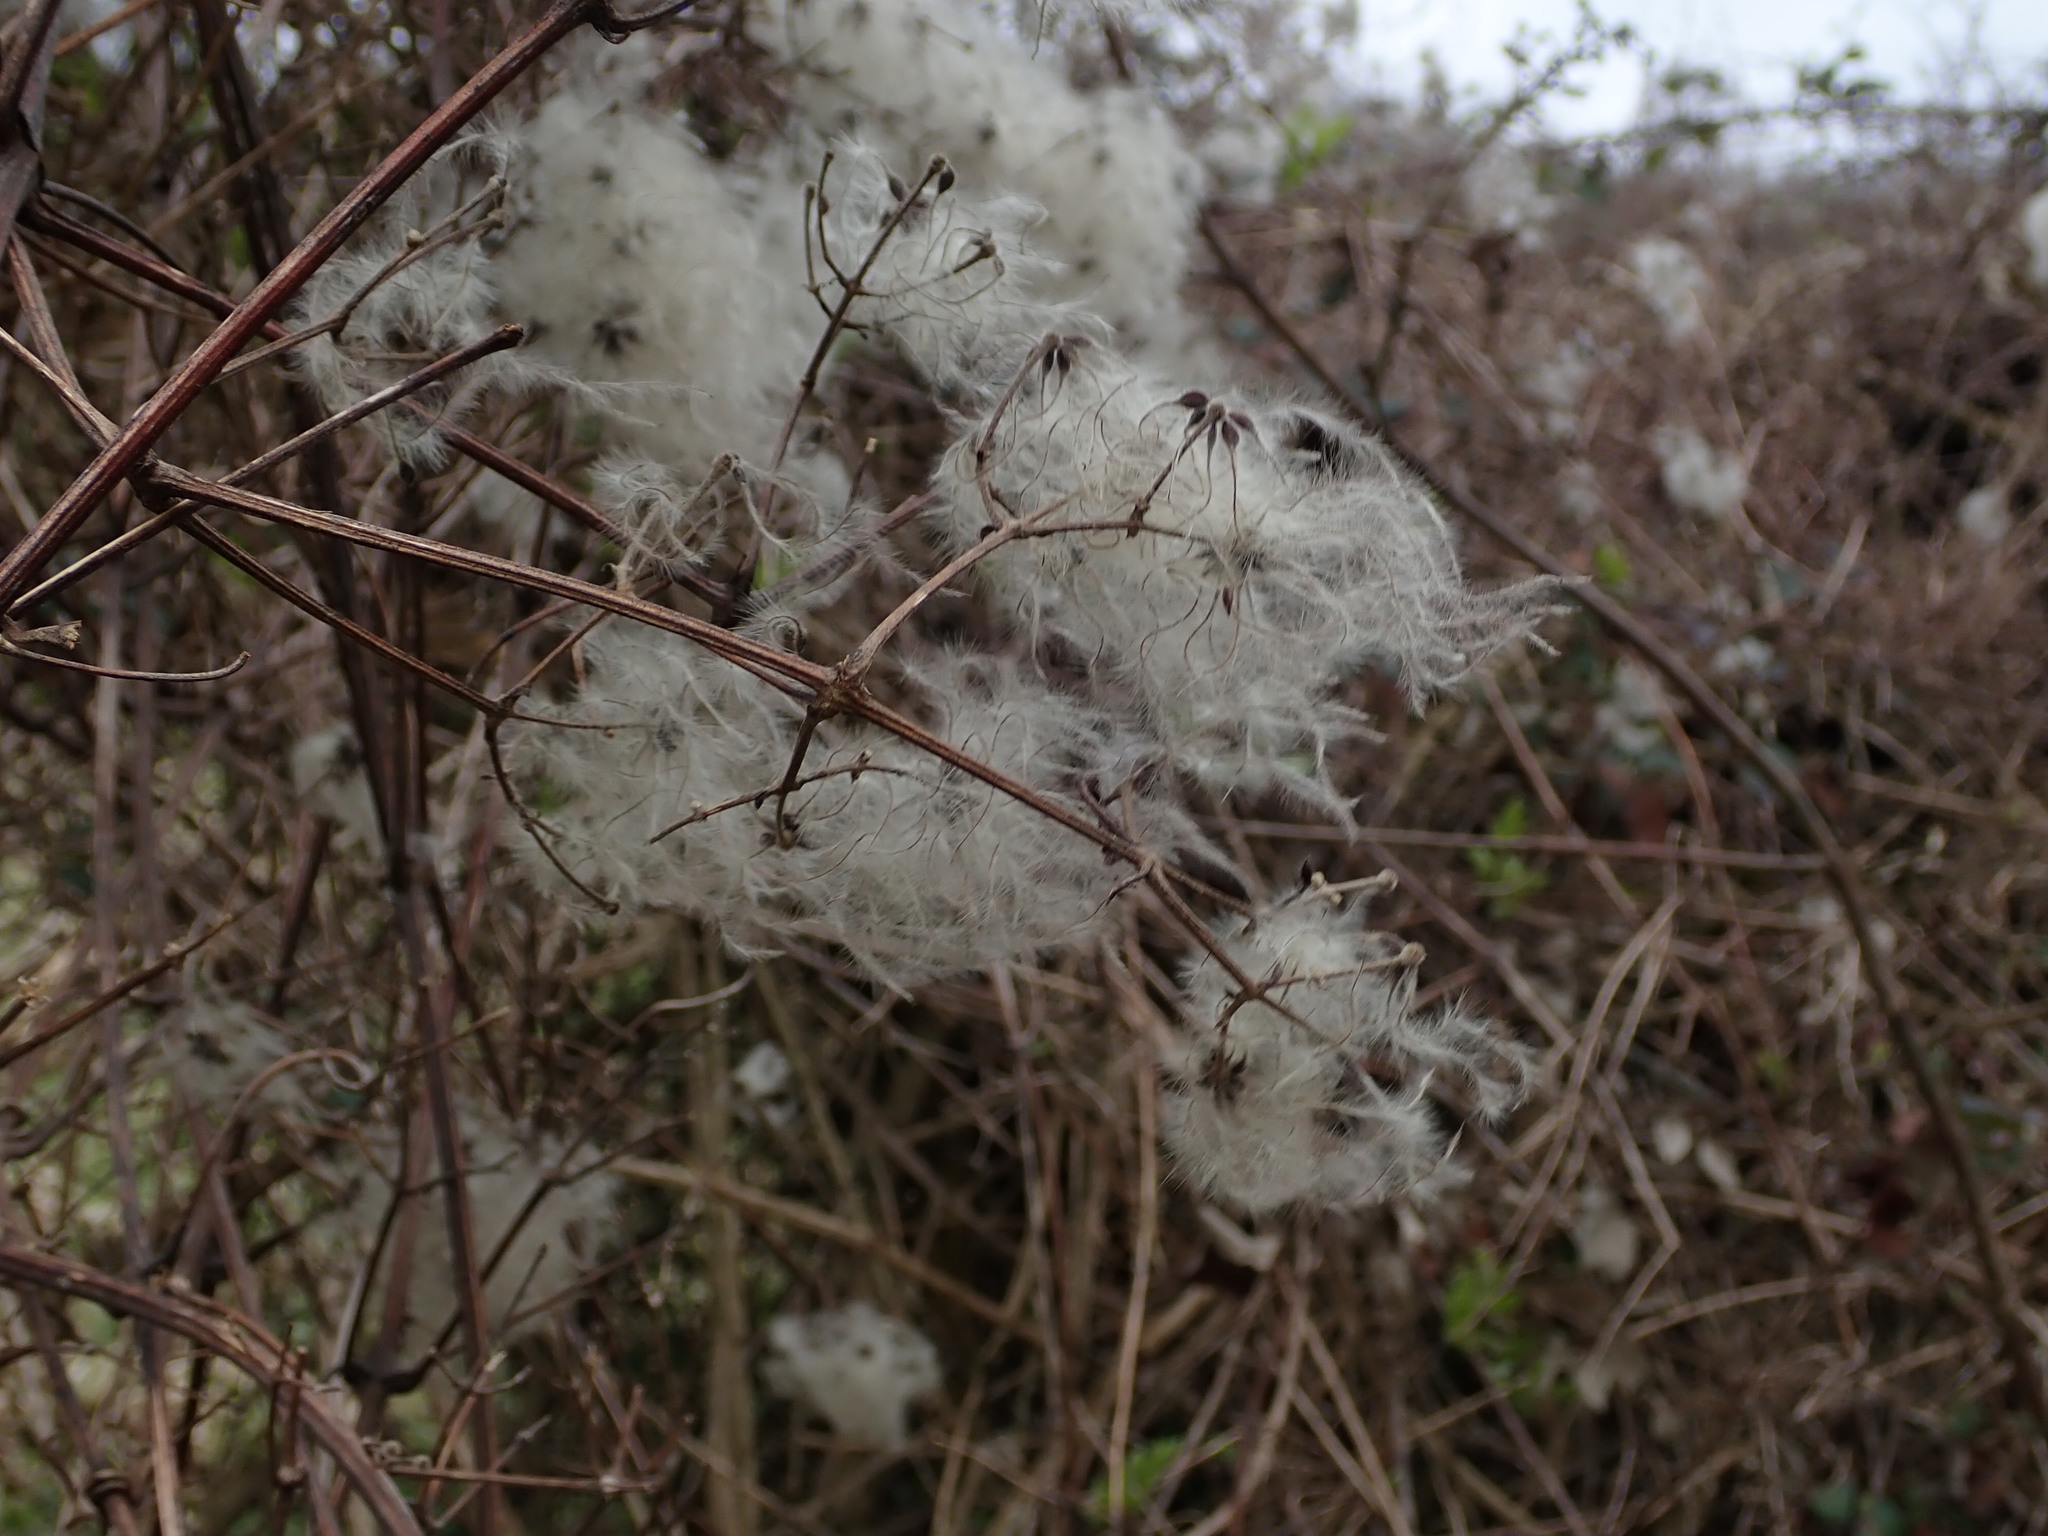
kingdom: Plantae
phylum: Tracheophyta
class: Magnoliopsida
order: Ranunculales
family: Ranunculaceae
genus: Clematis
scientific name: Clematis vitalba
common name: Evergreen clematis
